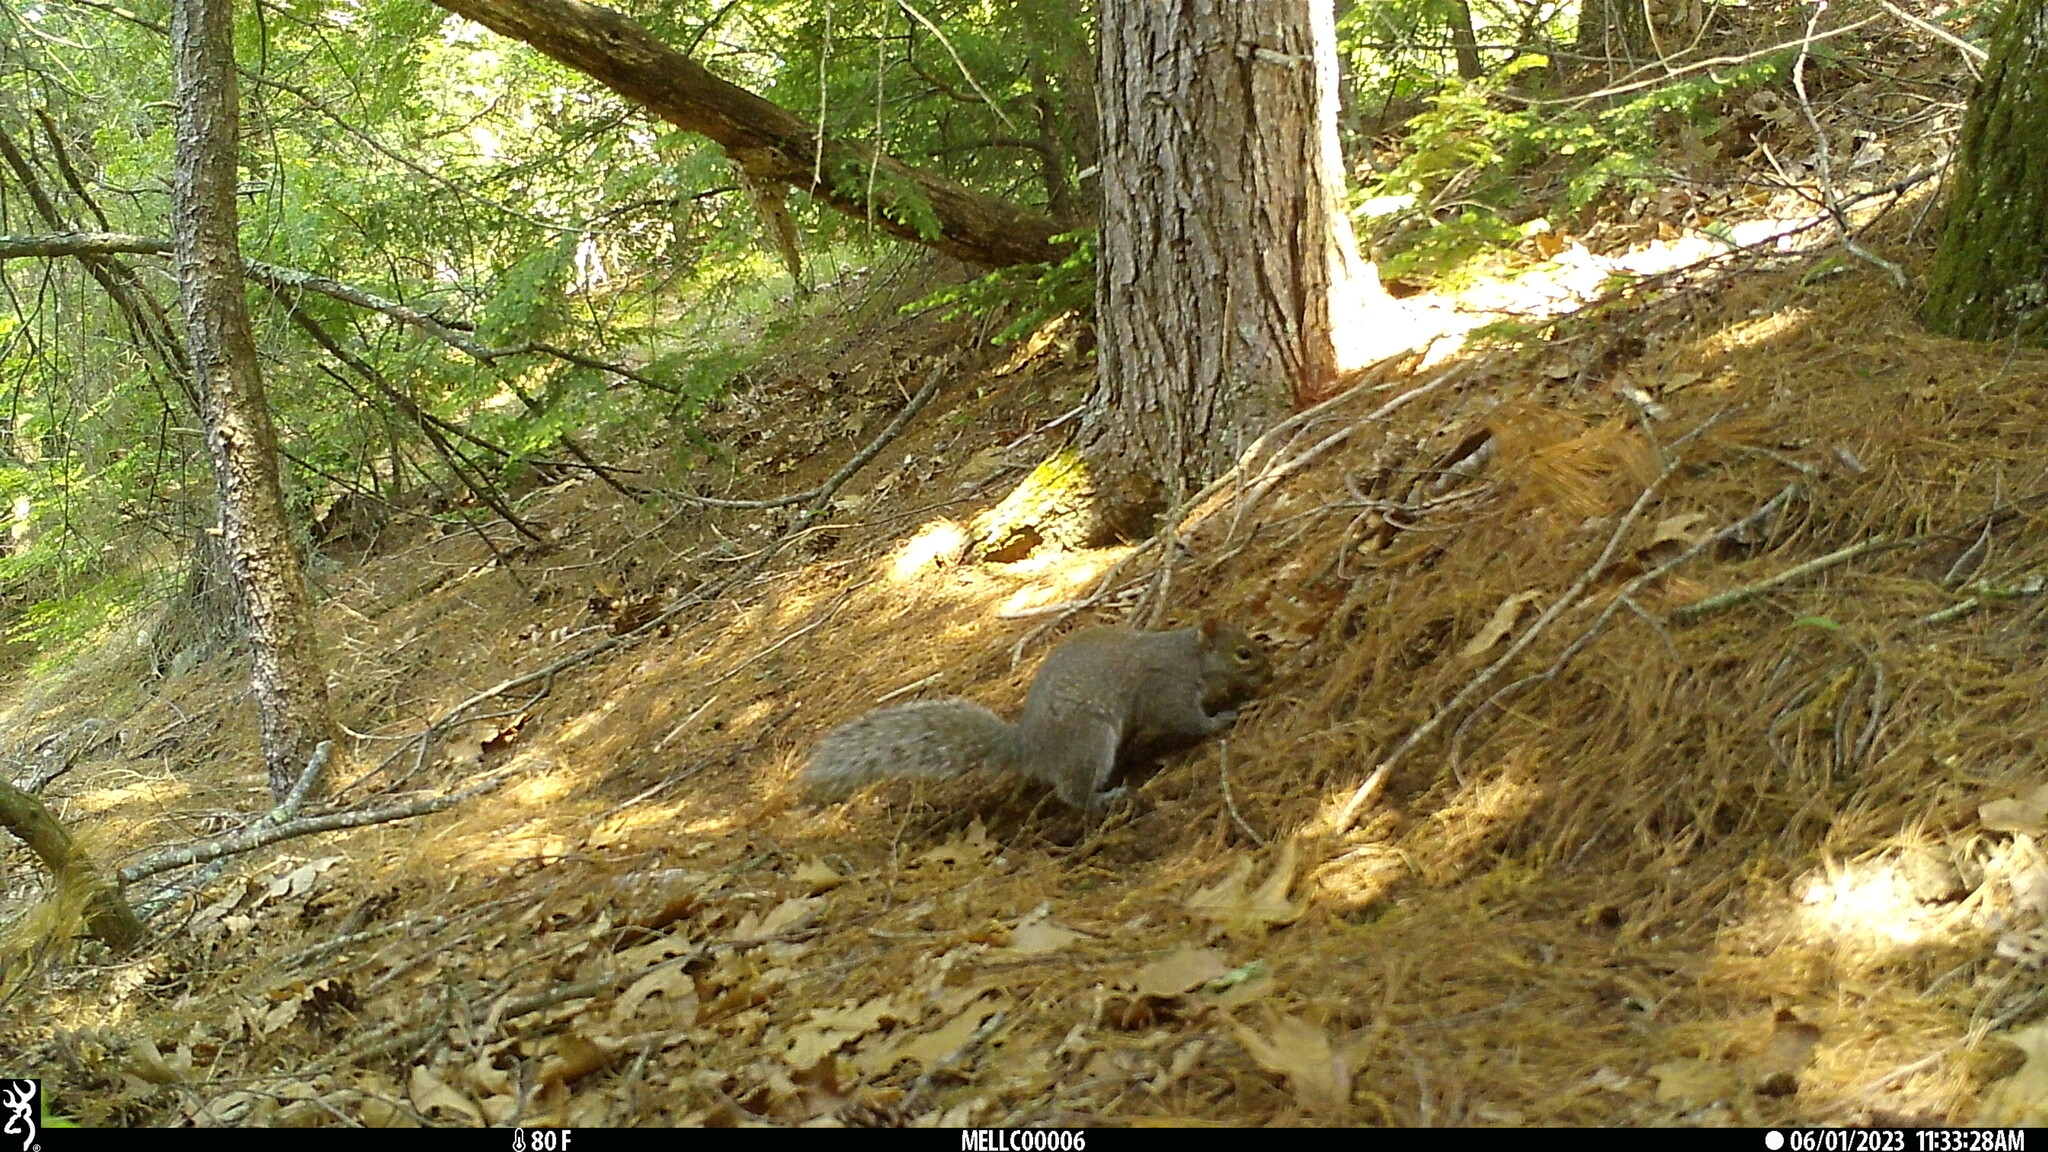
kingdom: Animalia
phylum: Chordata
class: Mammalia
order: Rodentia
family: Sciuridae
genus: Sciurus
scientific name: Sciurus carolinensis
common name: Eastern gray squirrel
